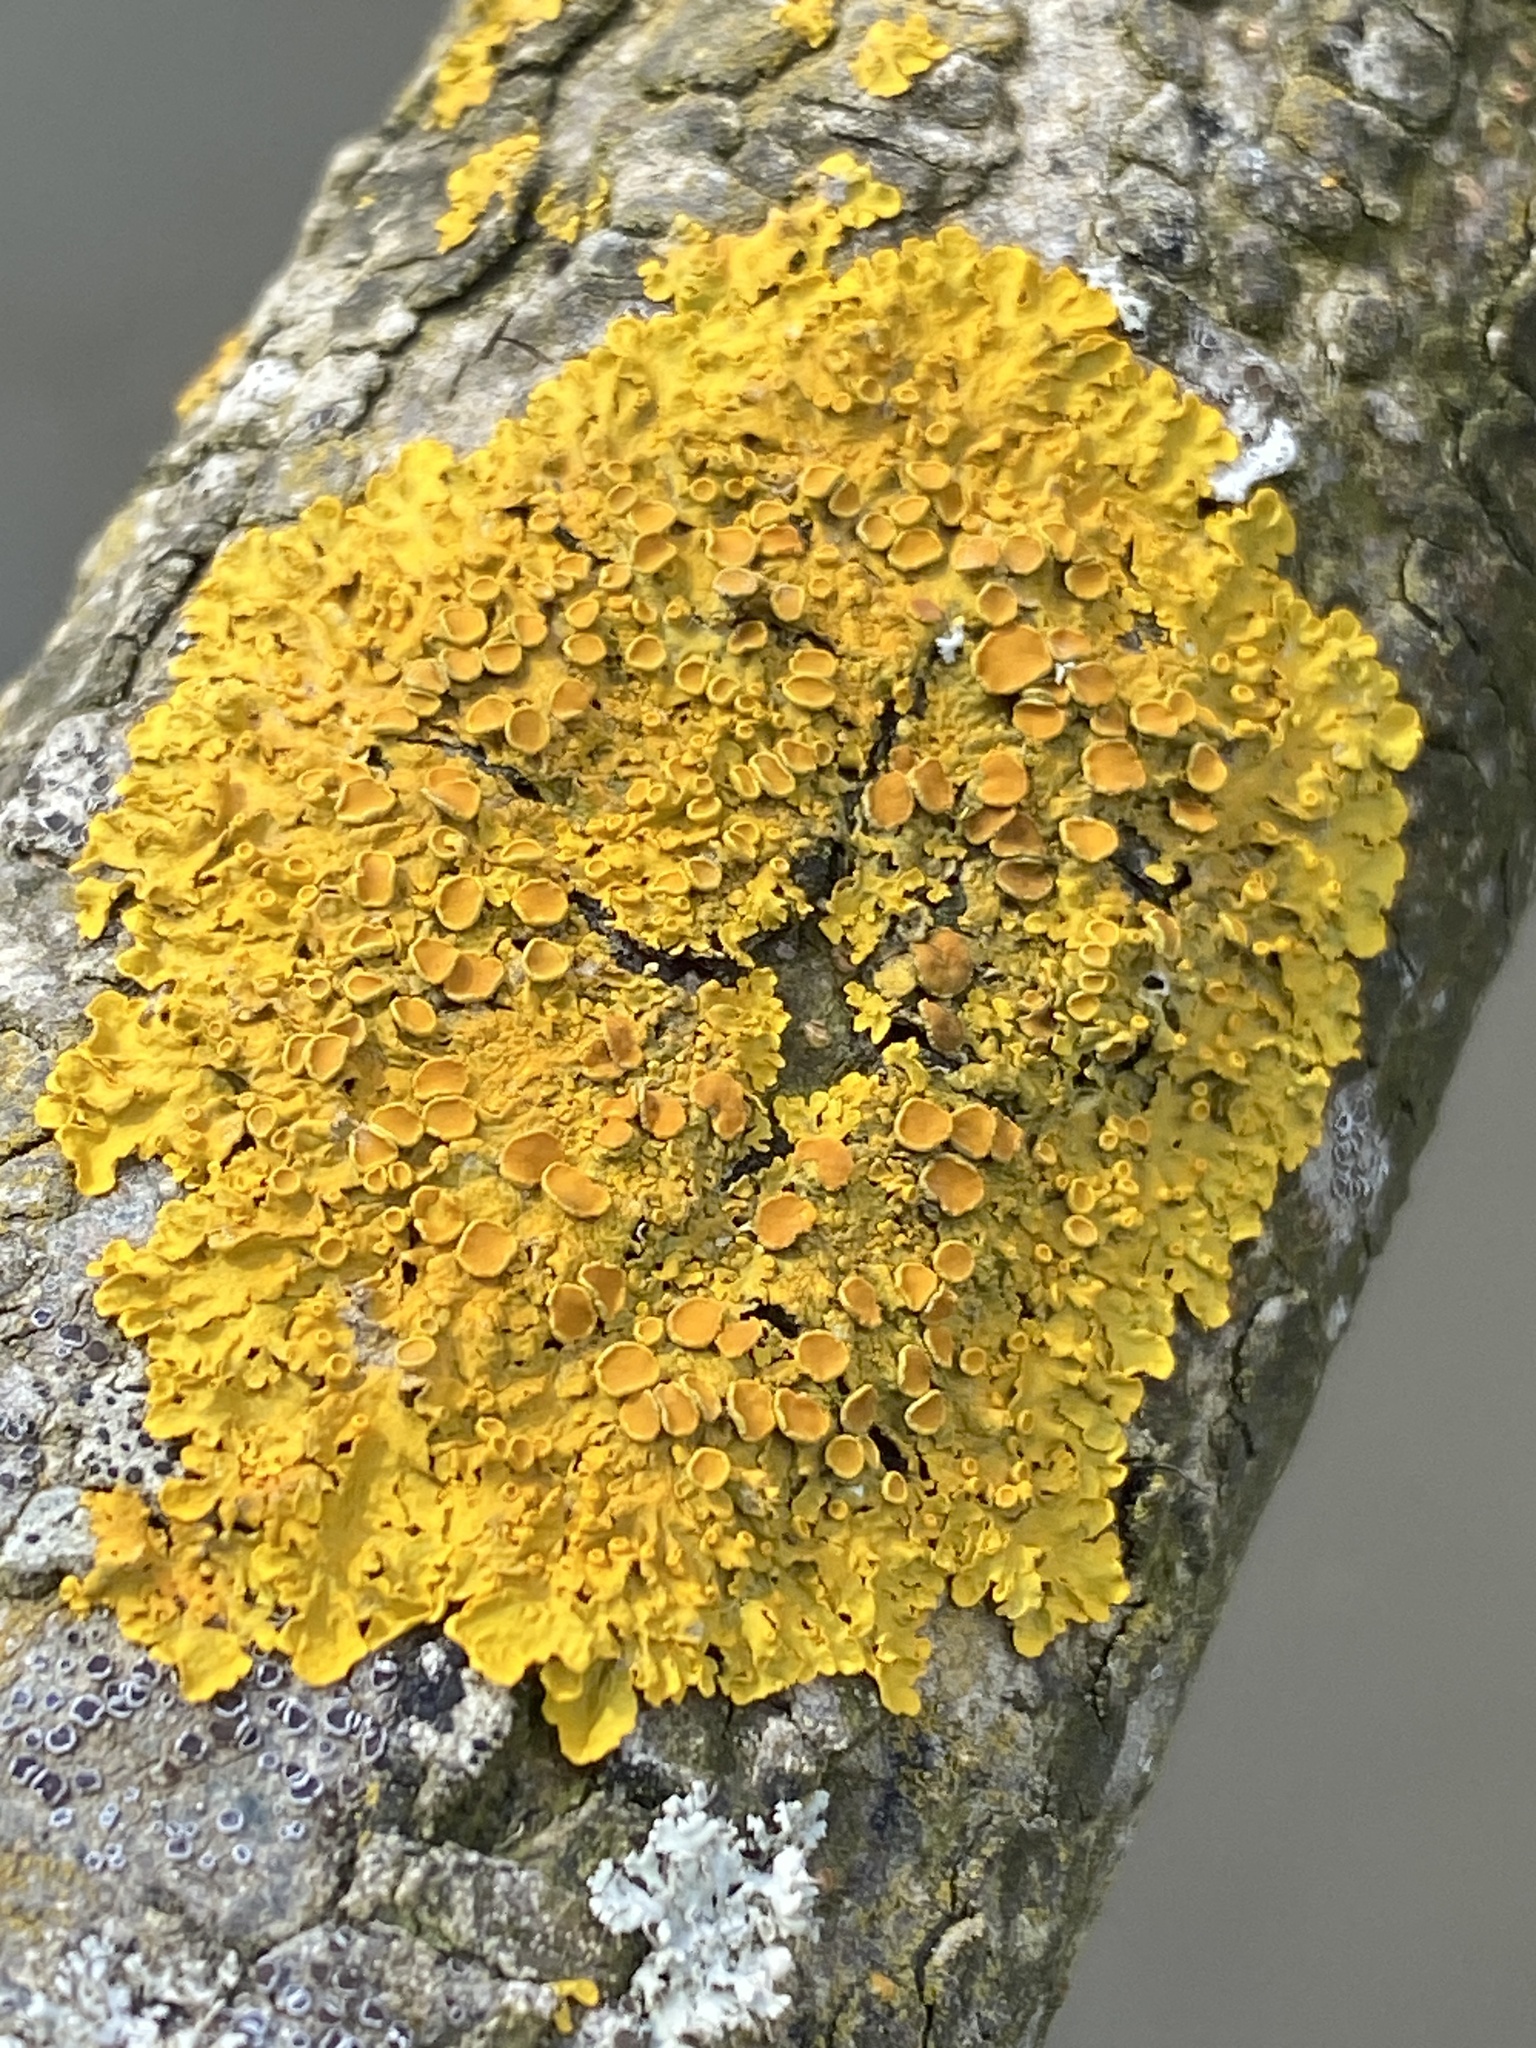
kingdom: Fungi
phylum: Ascomycota
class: Lecanoromycetes
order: Teloschistales
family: Teloschistaceae
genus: Xanthoria
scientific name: Xanthoria parietina
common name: Common orange lichen
